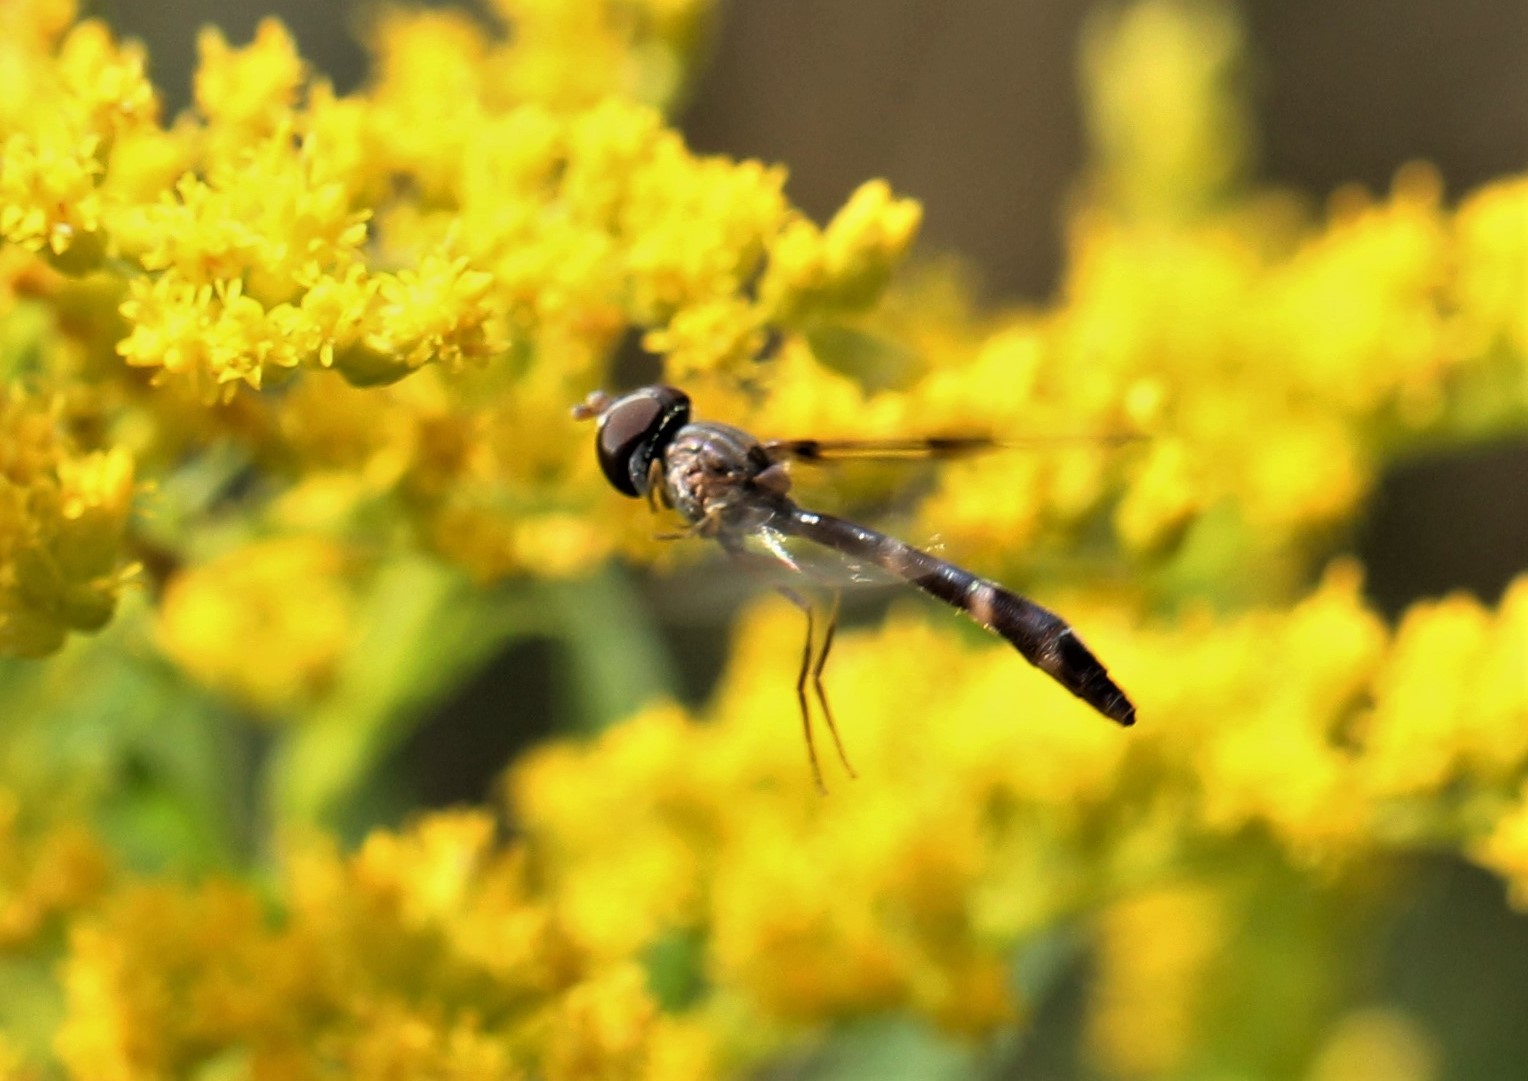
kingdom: Animalia
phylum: Arthropoda
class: Insecta
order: Diptera
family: Syrphidae
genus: Hypocritanus
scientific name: Hypocritanus fascipennis
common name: Eastern band-winged hover fly
